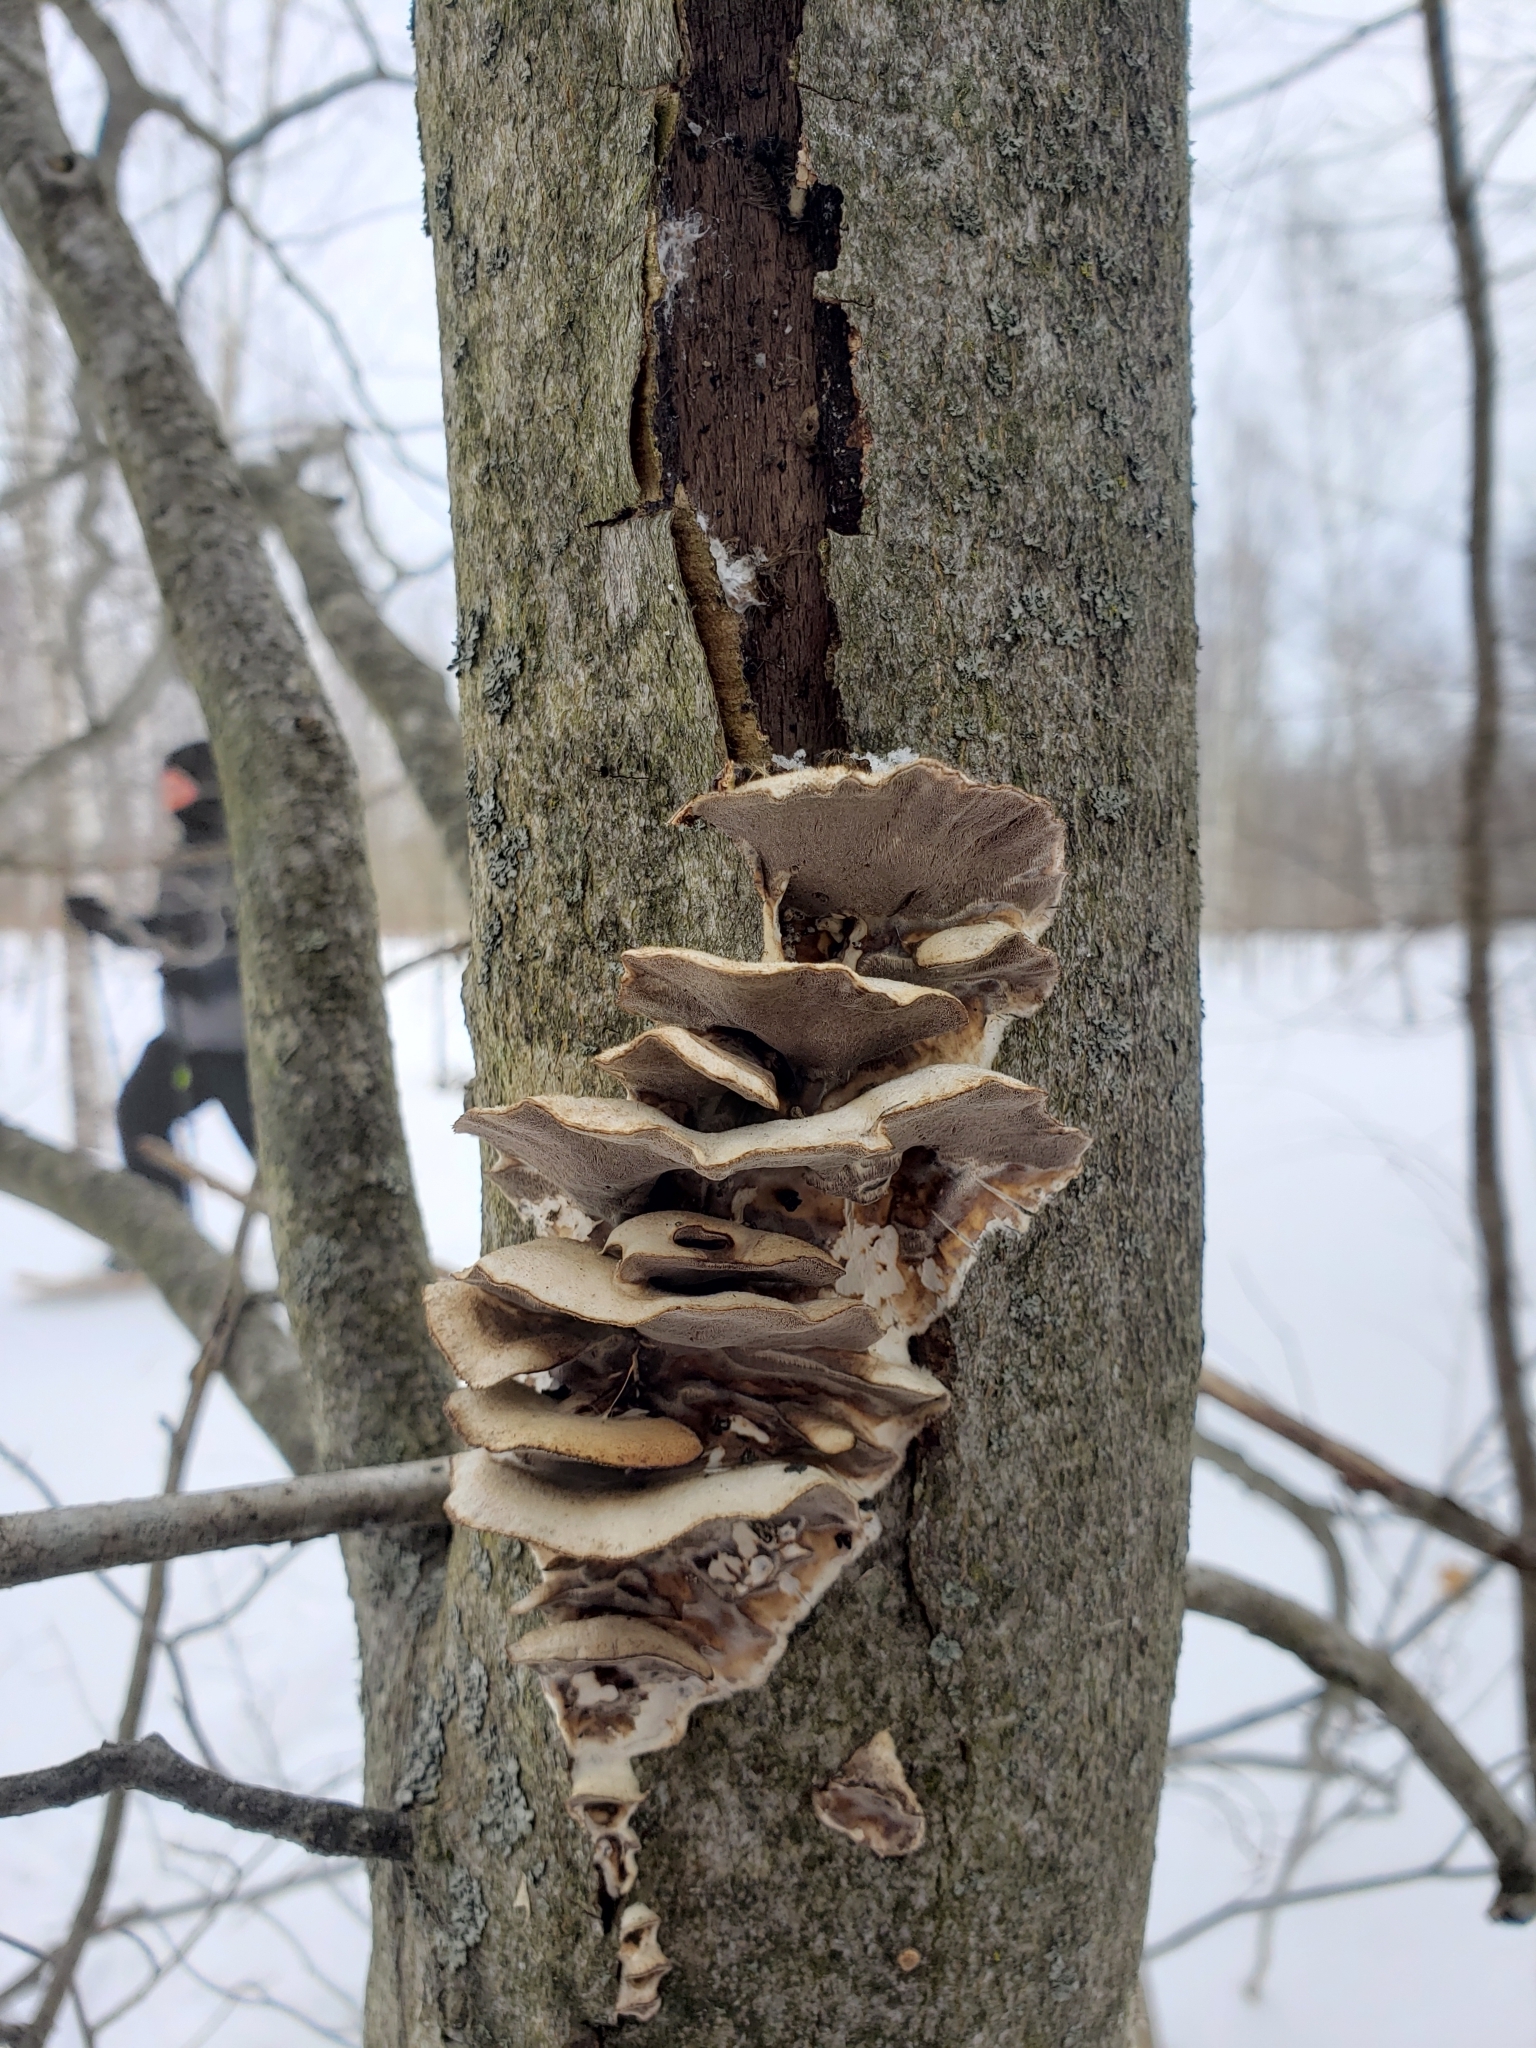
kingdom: Fungi
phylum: Basidiomycota
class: Agaricomycetes
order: Polyporales
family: Phanerochaetaceae
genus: Bjerkandera
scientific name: Bjerkandera adusta
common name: Smoky bracket
